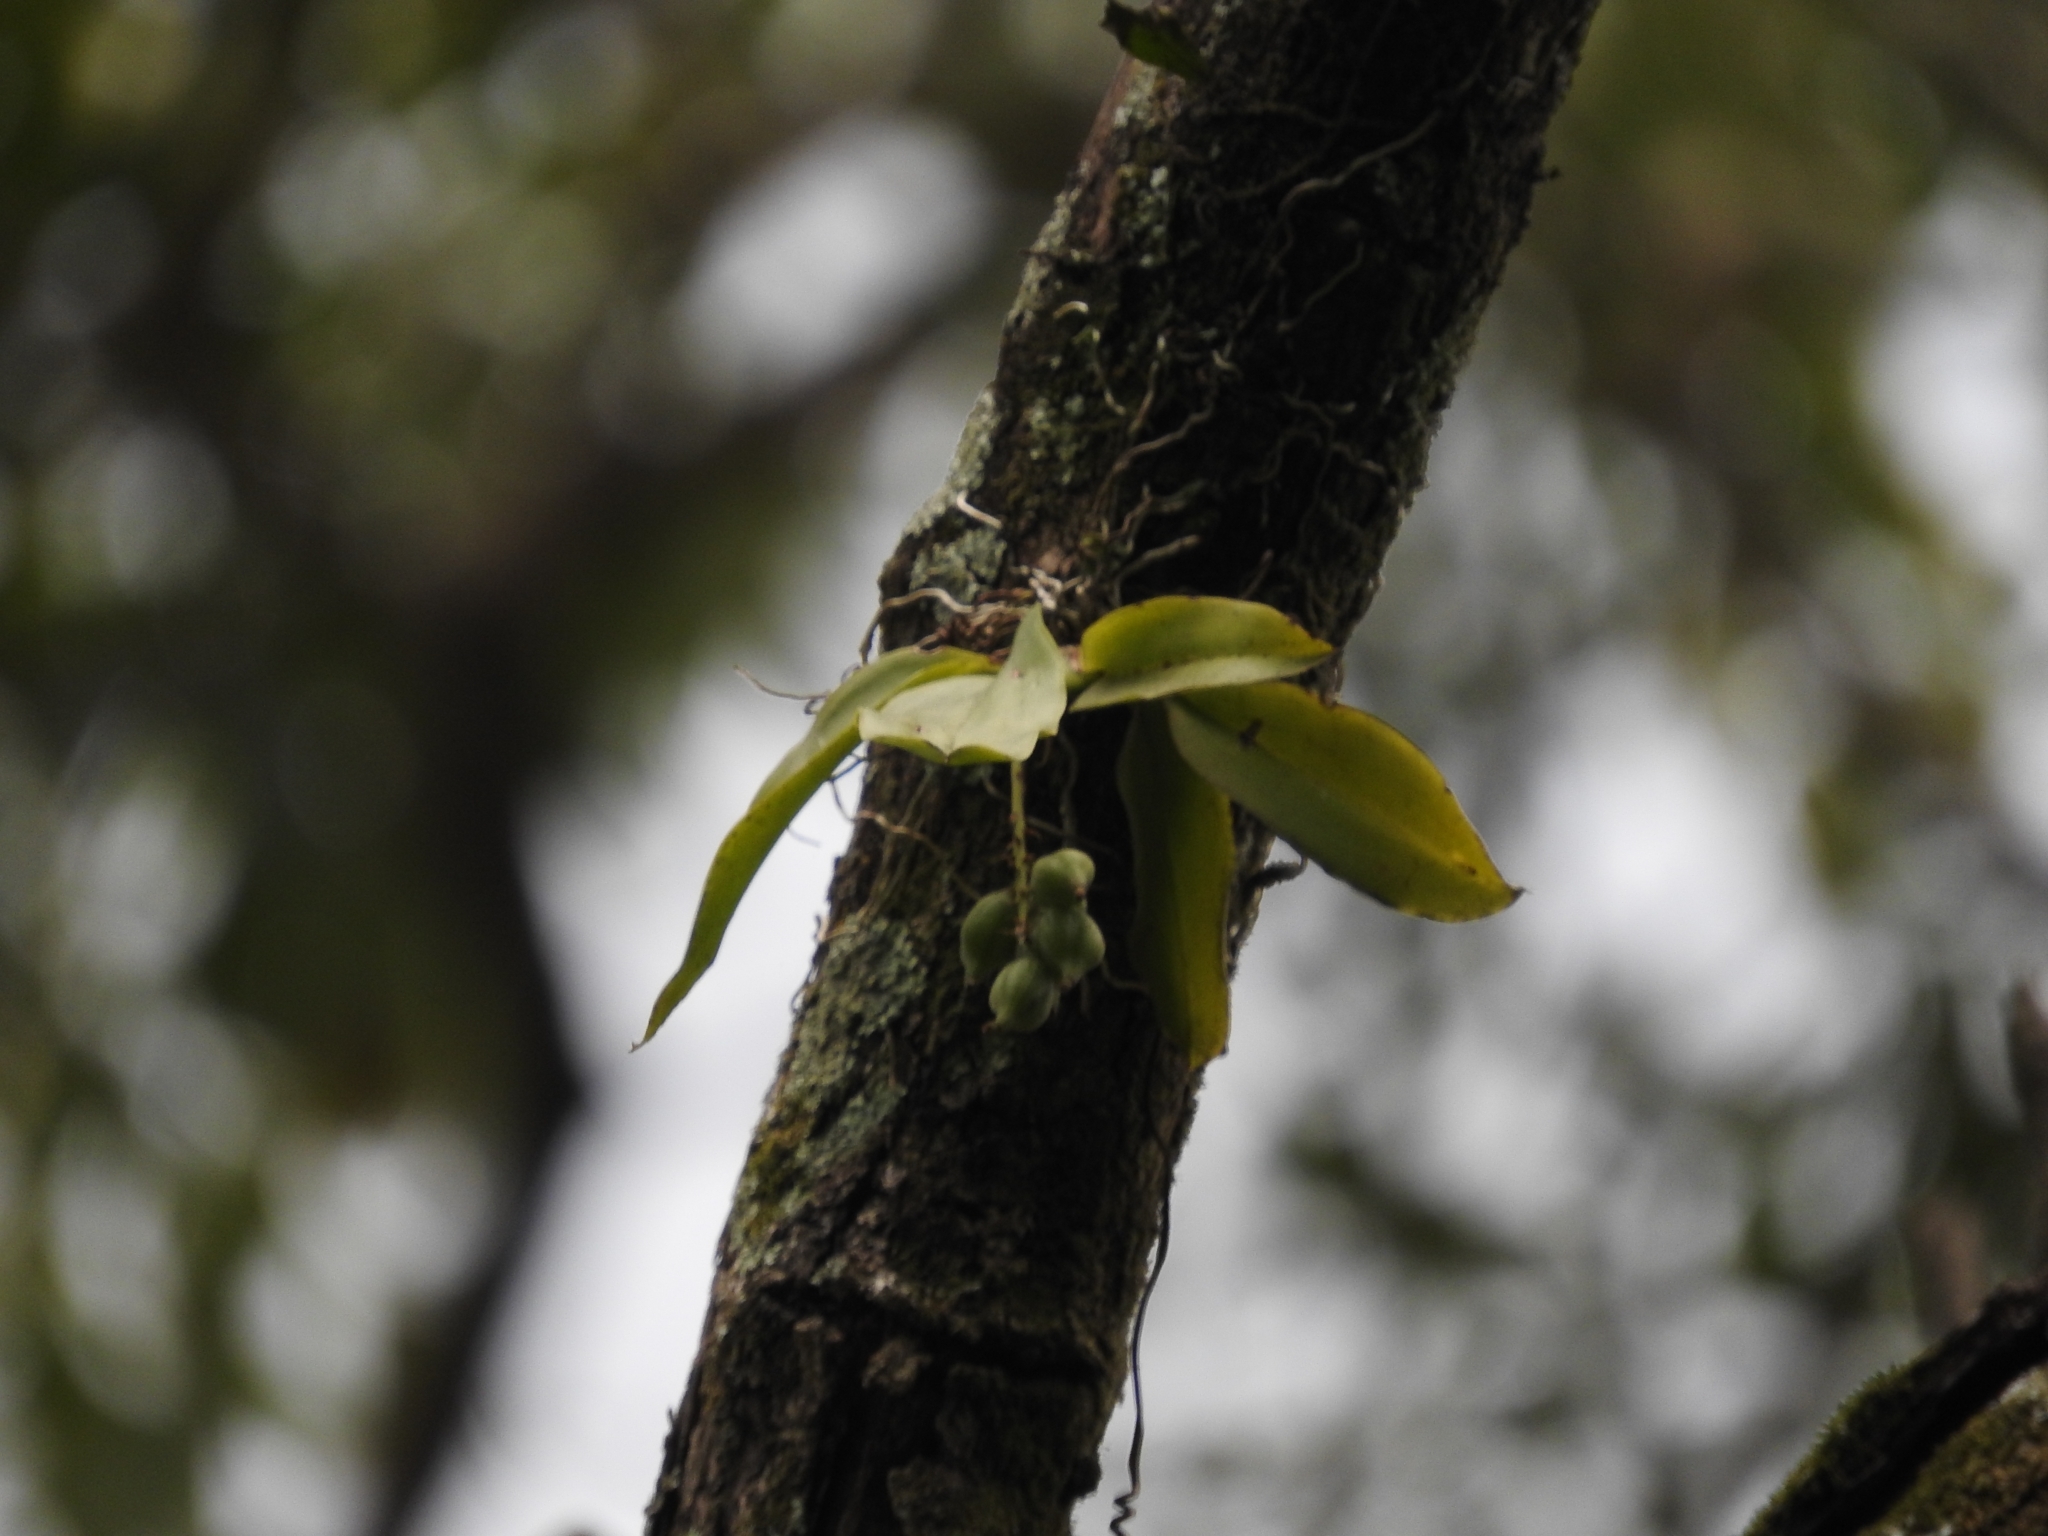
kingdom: Plantae
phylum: Tracheophyta
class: Liliopsida
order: Asparagales
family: Orchidaceae
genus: Notylia
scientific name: Notylia barkeri
